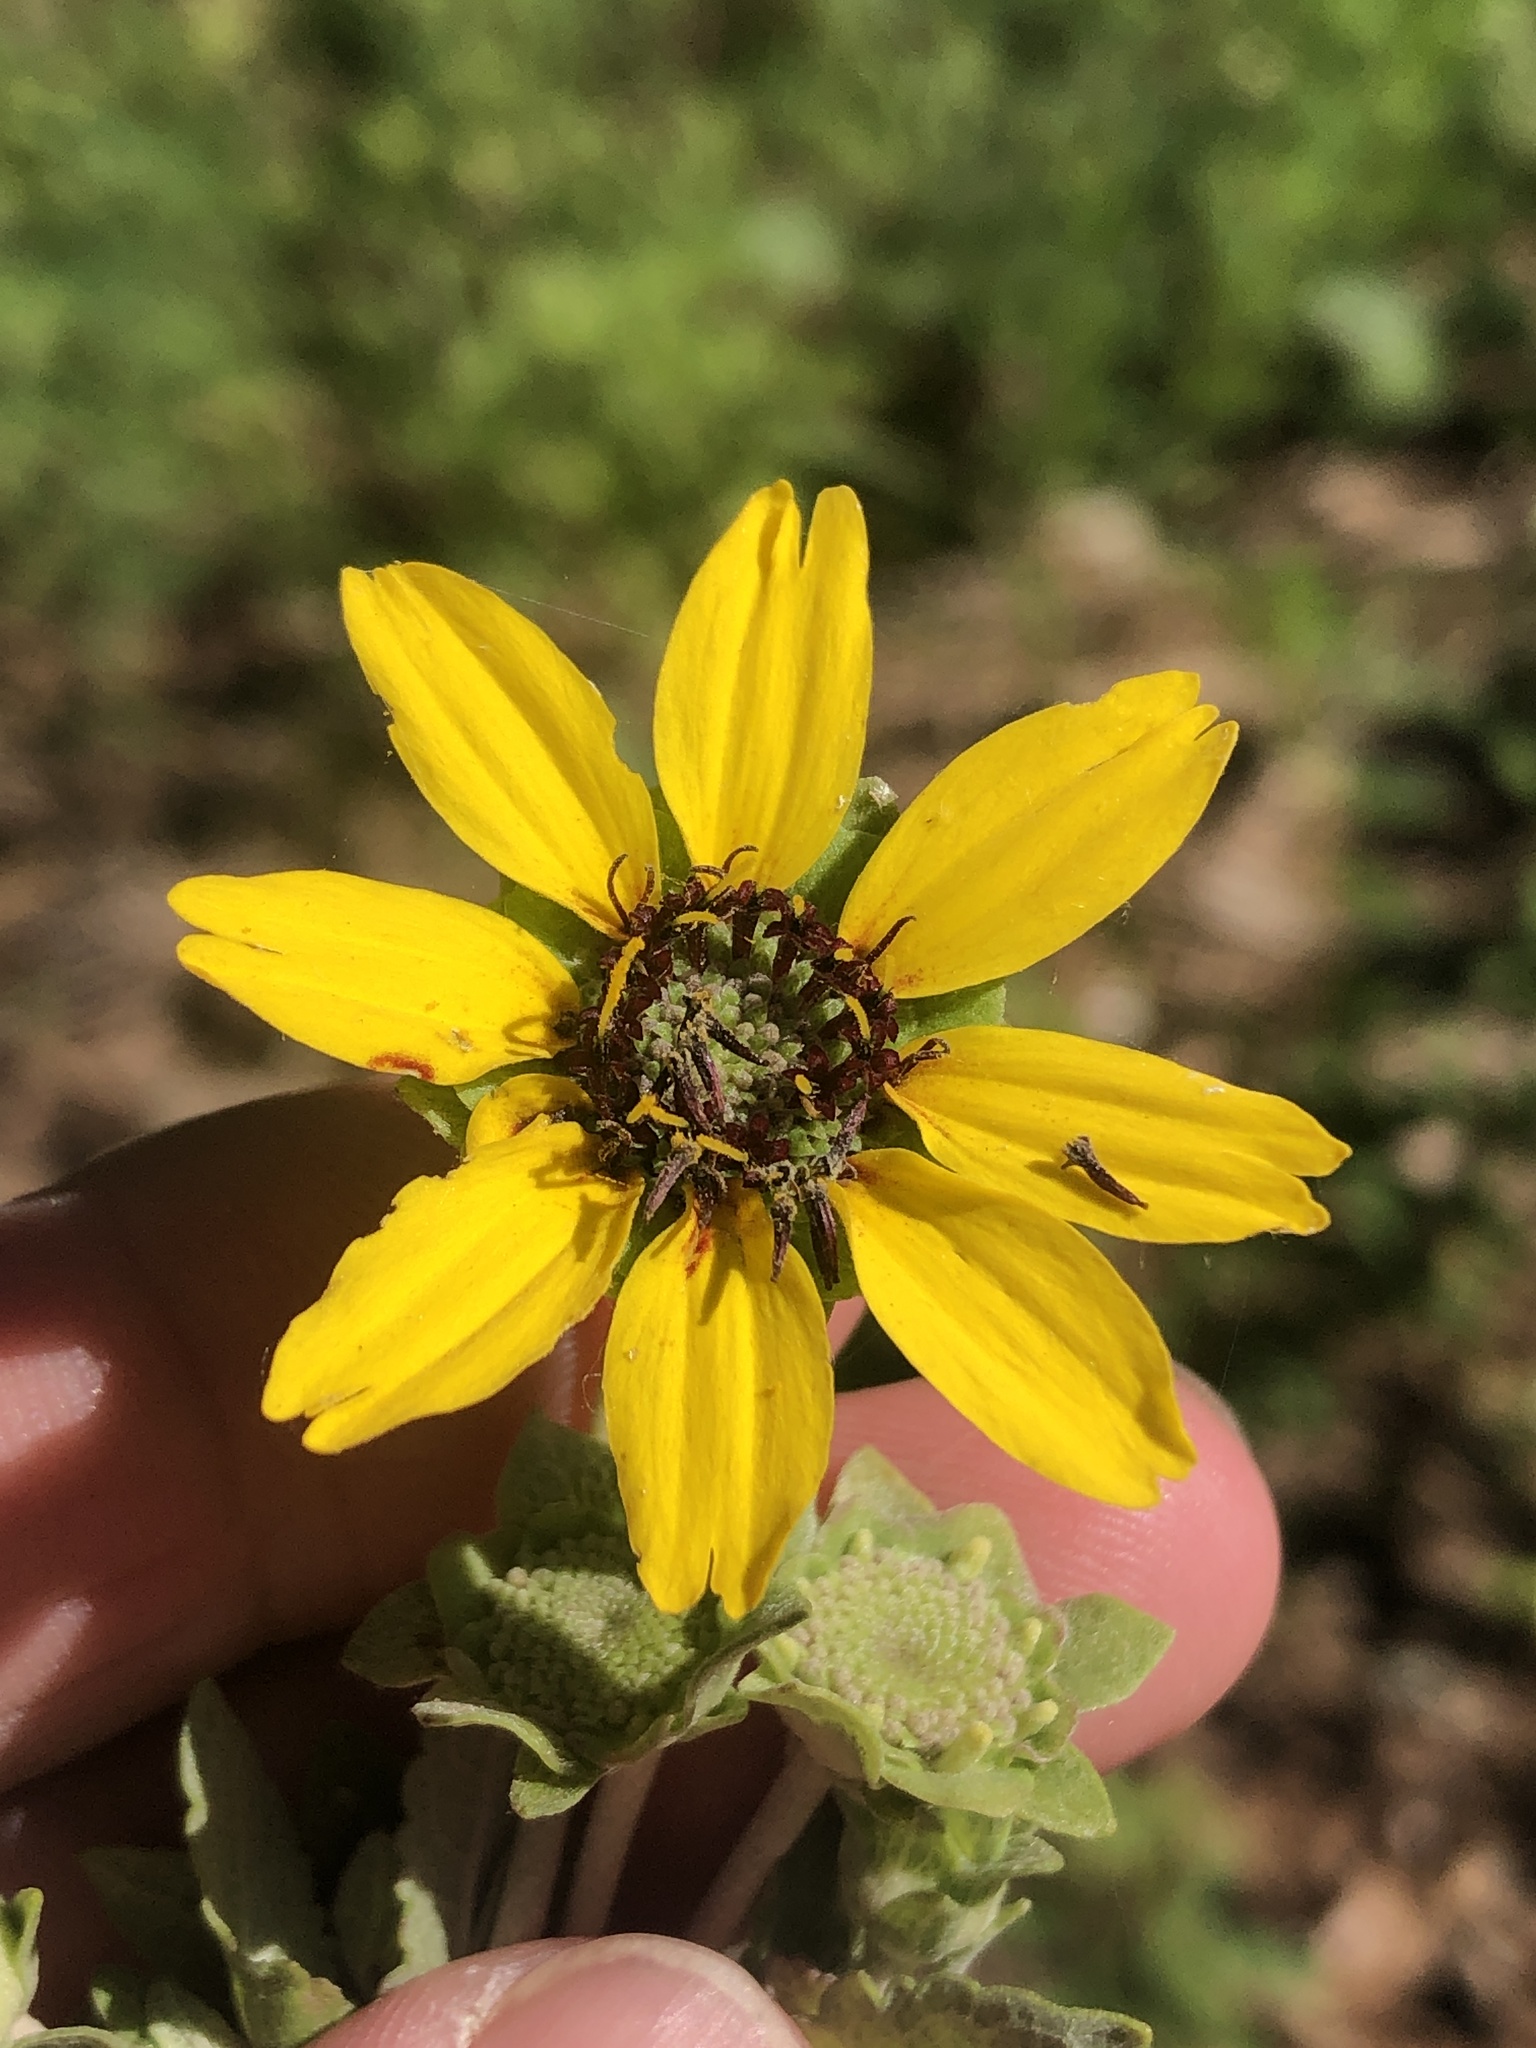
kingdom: Plantae
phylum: Tracheophyta
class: Magnoliopsida
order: Asterales
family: Asteraceae
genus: Berlandiera
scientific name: Berlandiera pumila
